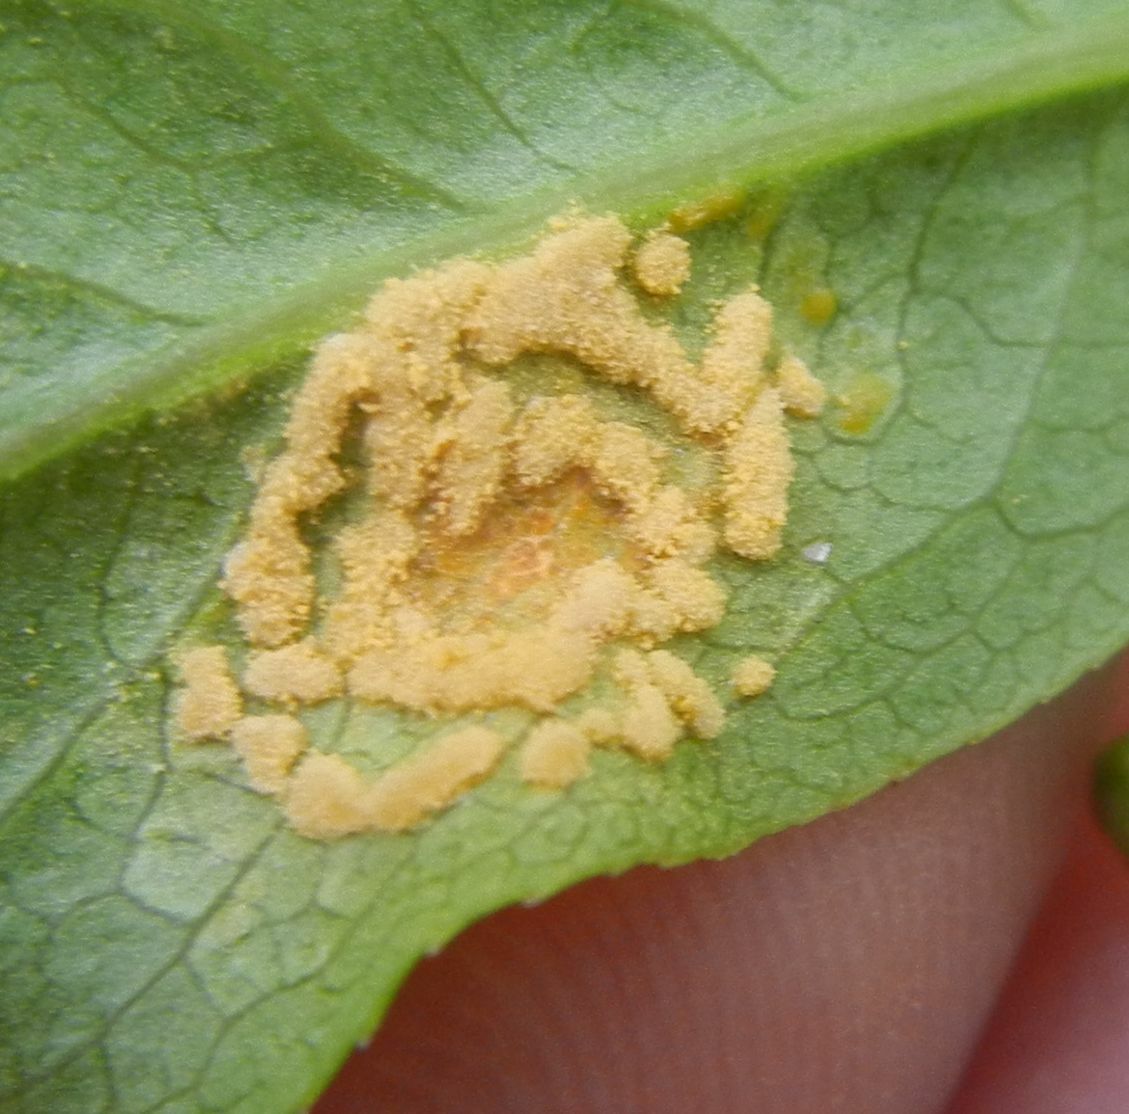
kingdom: Fungi
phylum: Basidiomycota
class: Pucciniomycetes
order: Pucciniales
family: Melampsoraceae
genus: Melampsora
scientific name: Melampsora epitea
